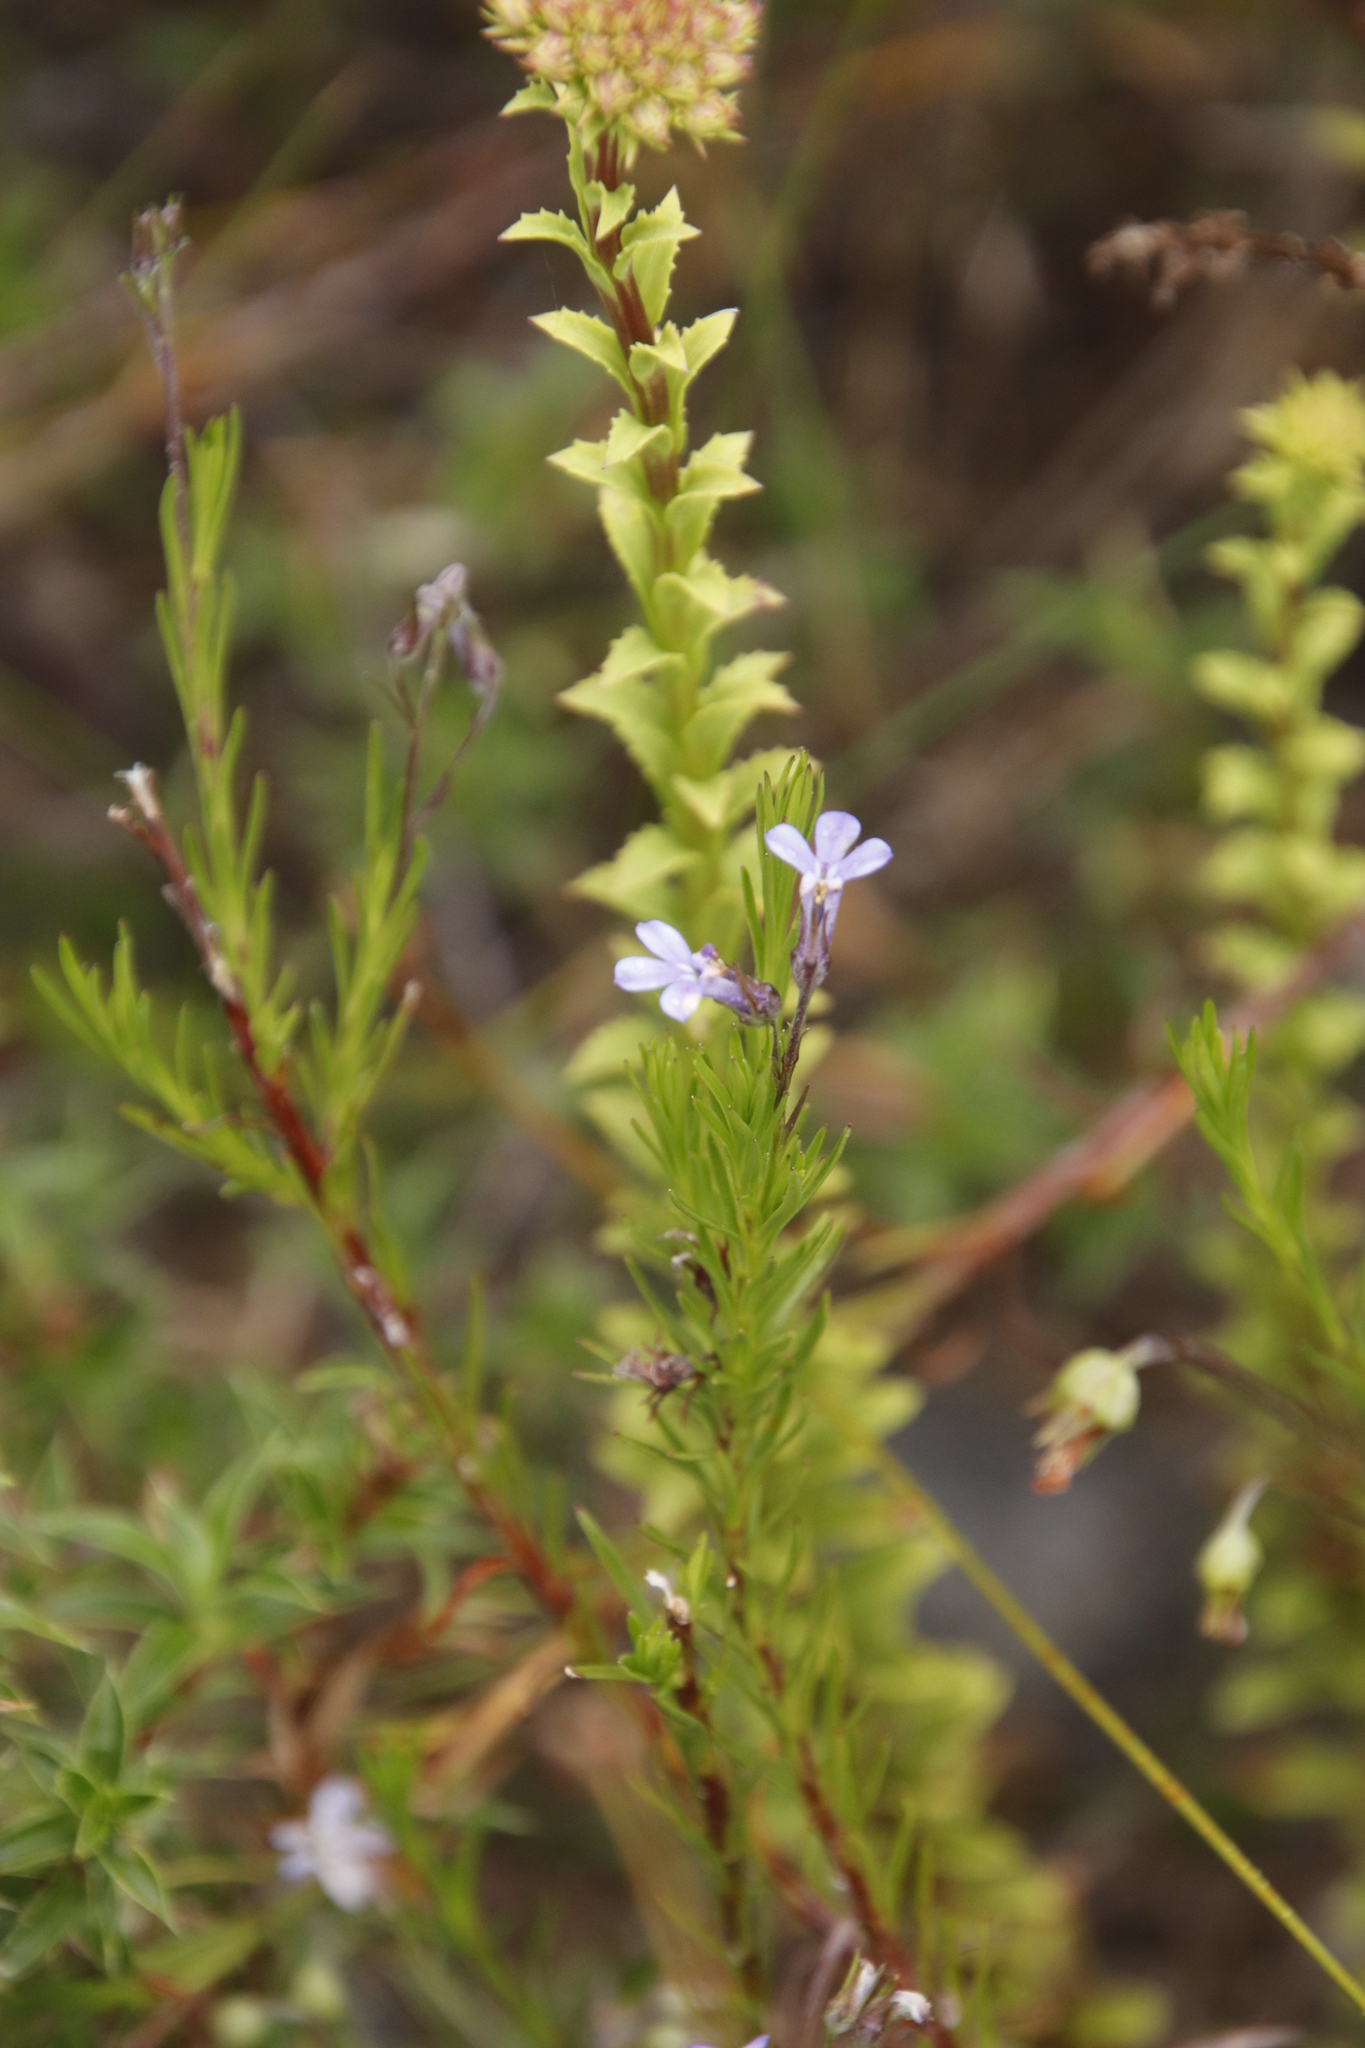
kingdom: Plantae
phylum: Tracheophyta
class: Magnoliopsida
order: Asterales
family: Campanulaceae
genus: Lobelia
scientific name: Lobelia pinifolia
